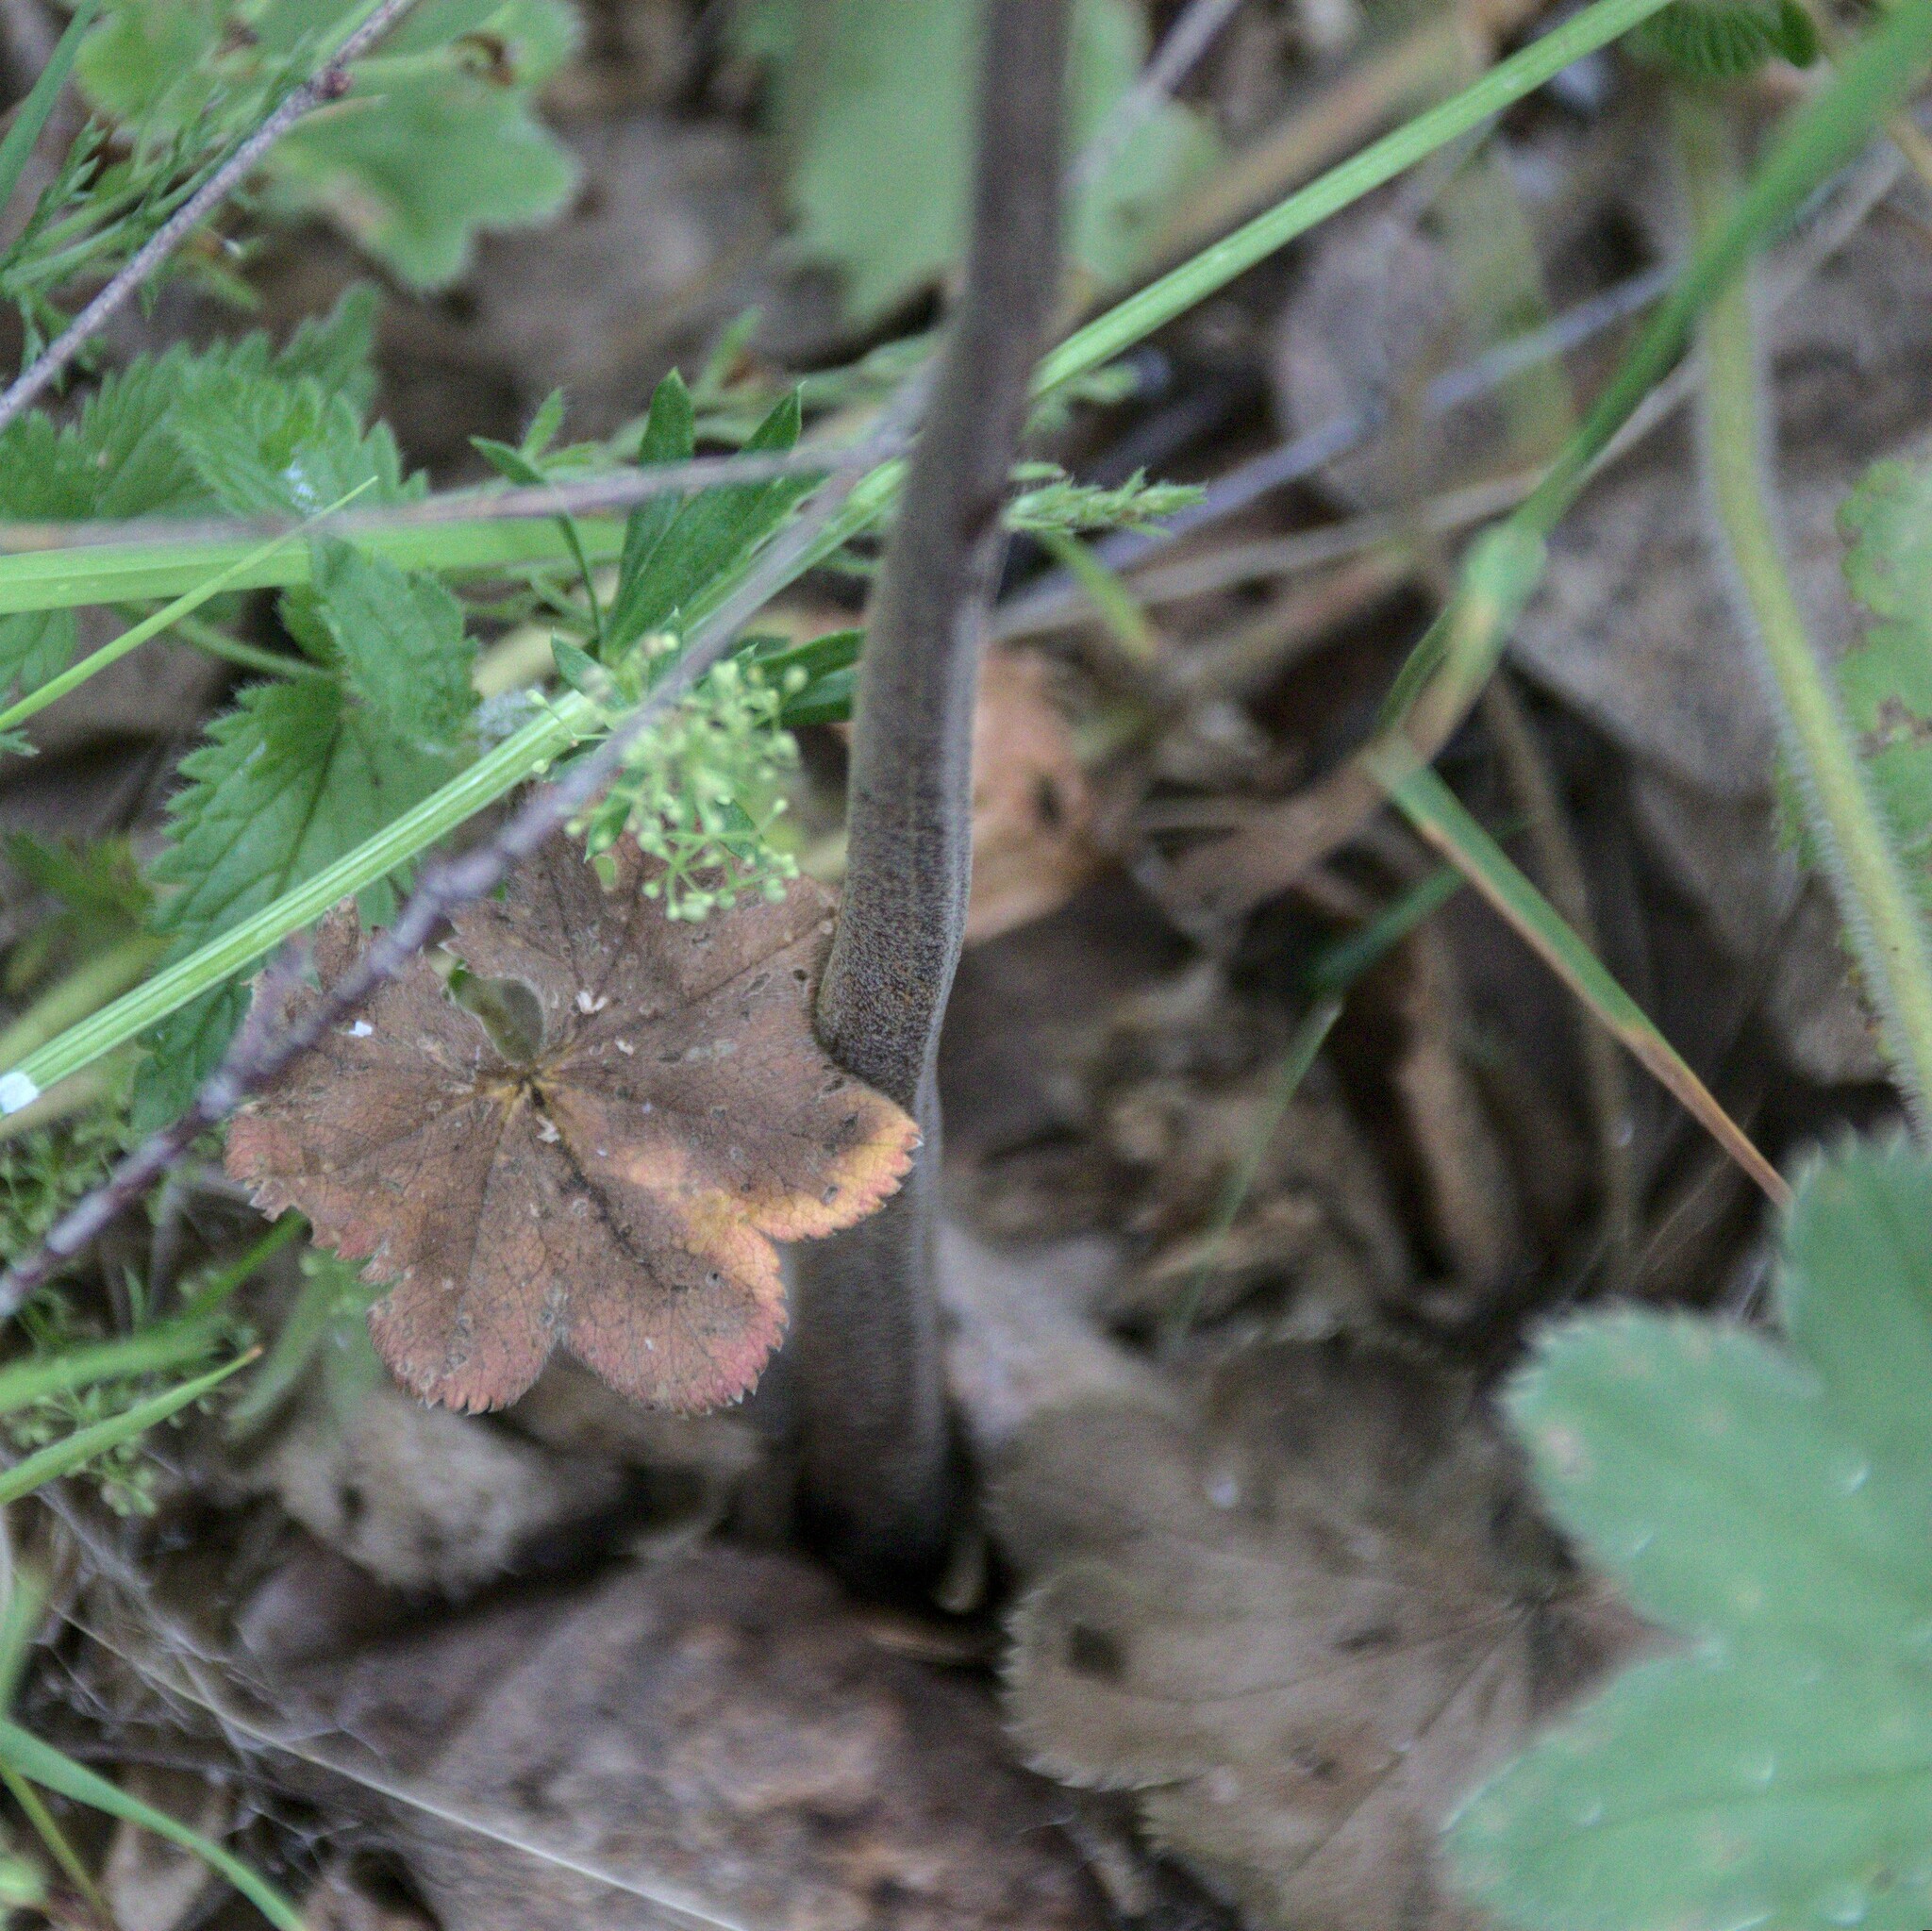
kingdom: Plantae
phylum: Tracheophyta
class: Polypodiopsida
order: Polypodiales
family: Dennstaedtiaceae
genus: Pteridium
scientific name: Pteridium aquilinum
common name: Bracken
